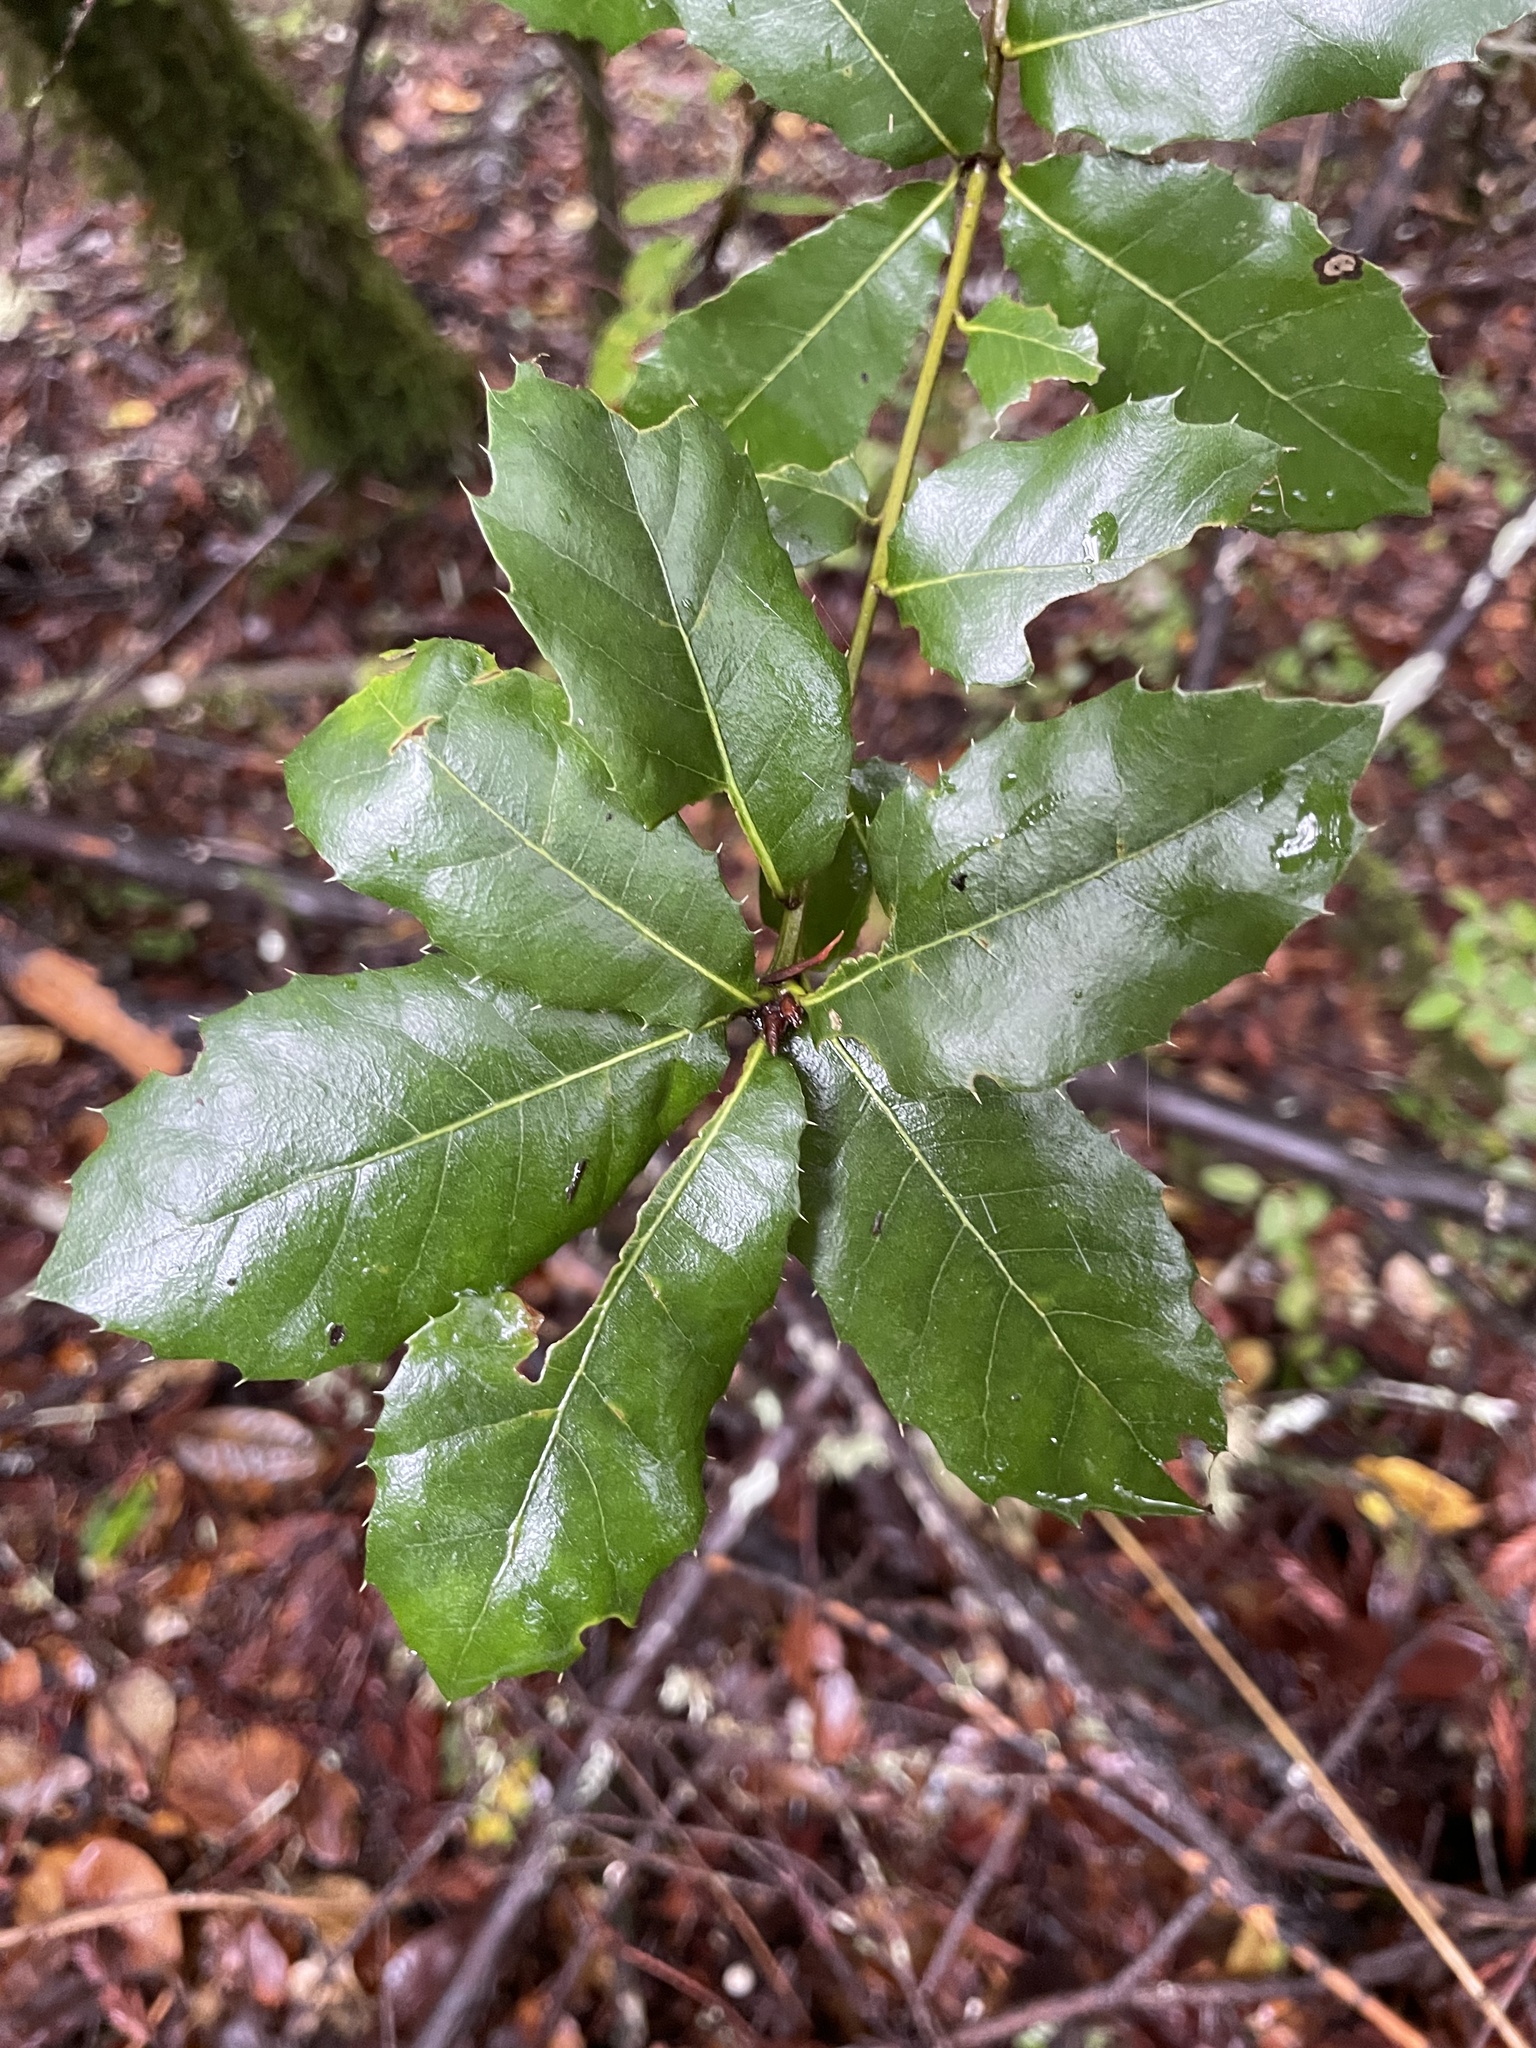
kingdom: Plantae
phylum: Tracheophyta
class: Magnoliopsida
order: Fagales
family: Fagaceae
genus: Quercus
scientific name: Quercus parvula
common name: Santa cruz island oak
